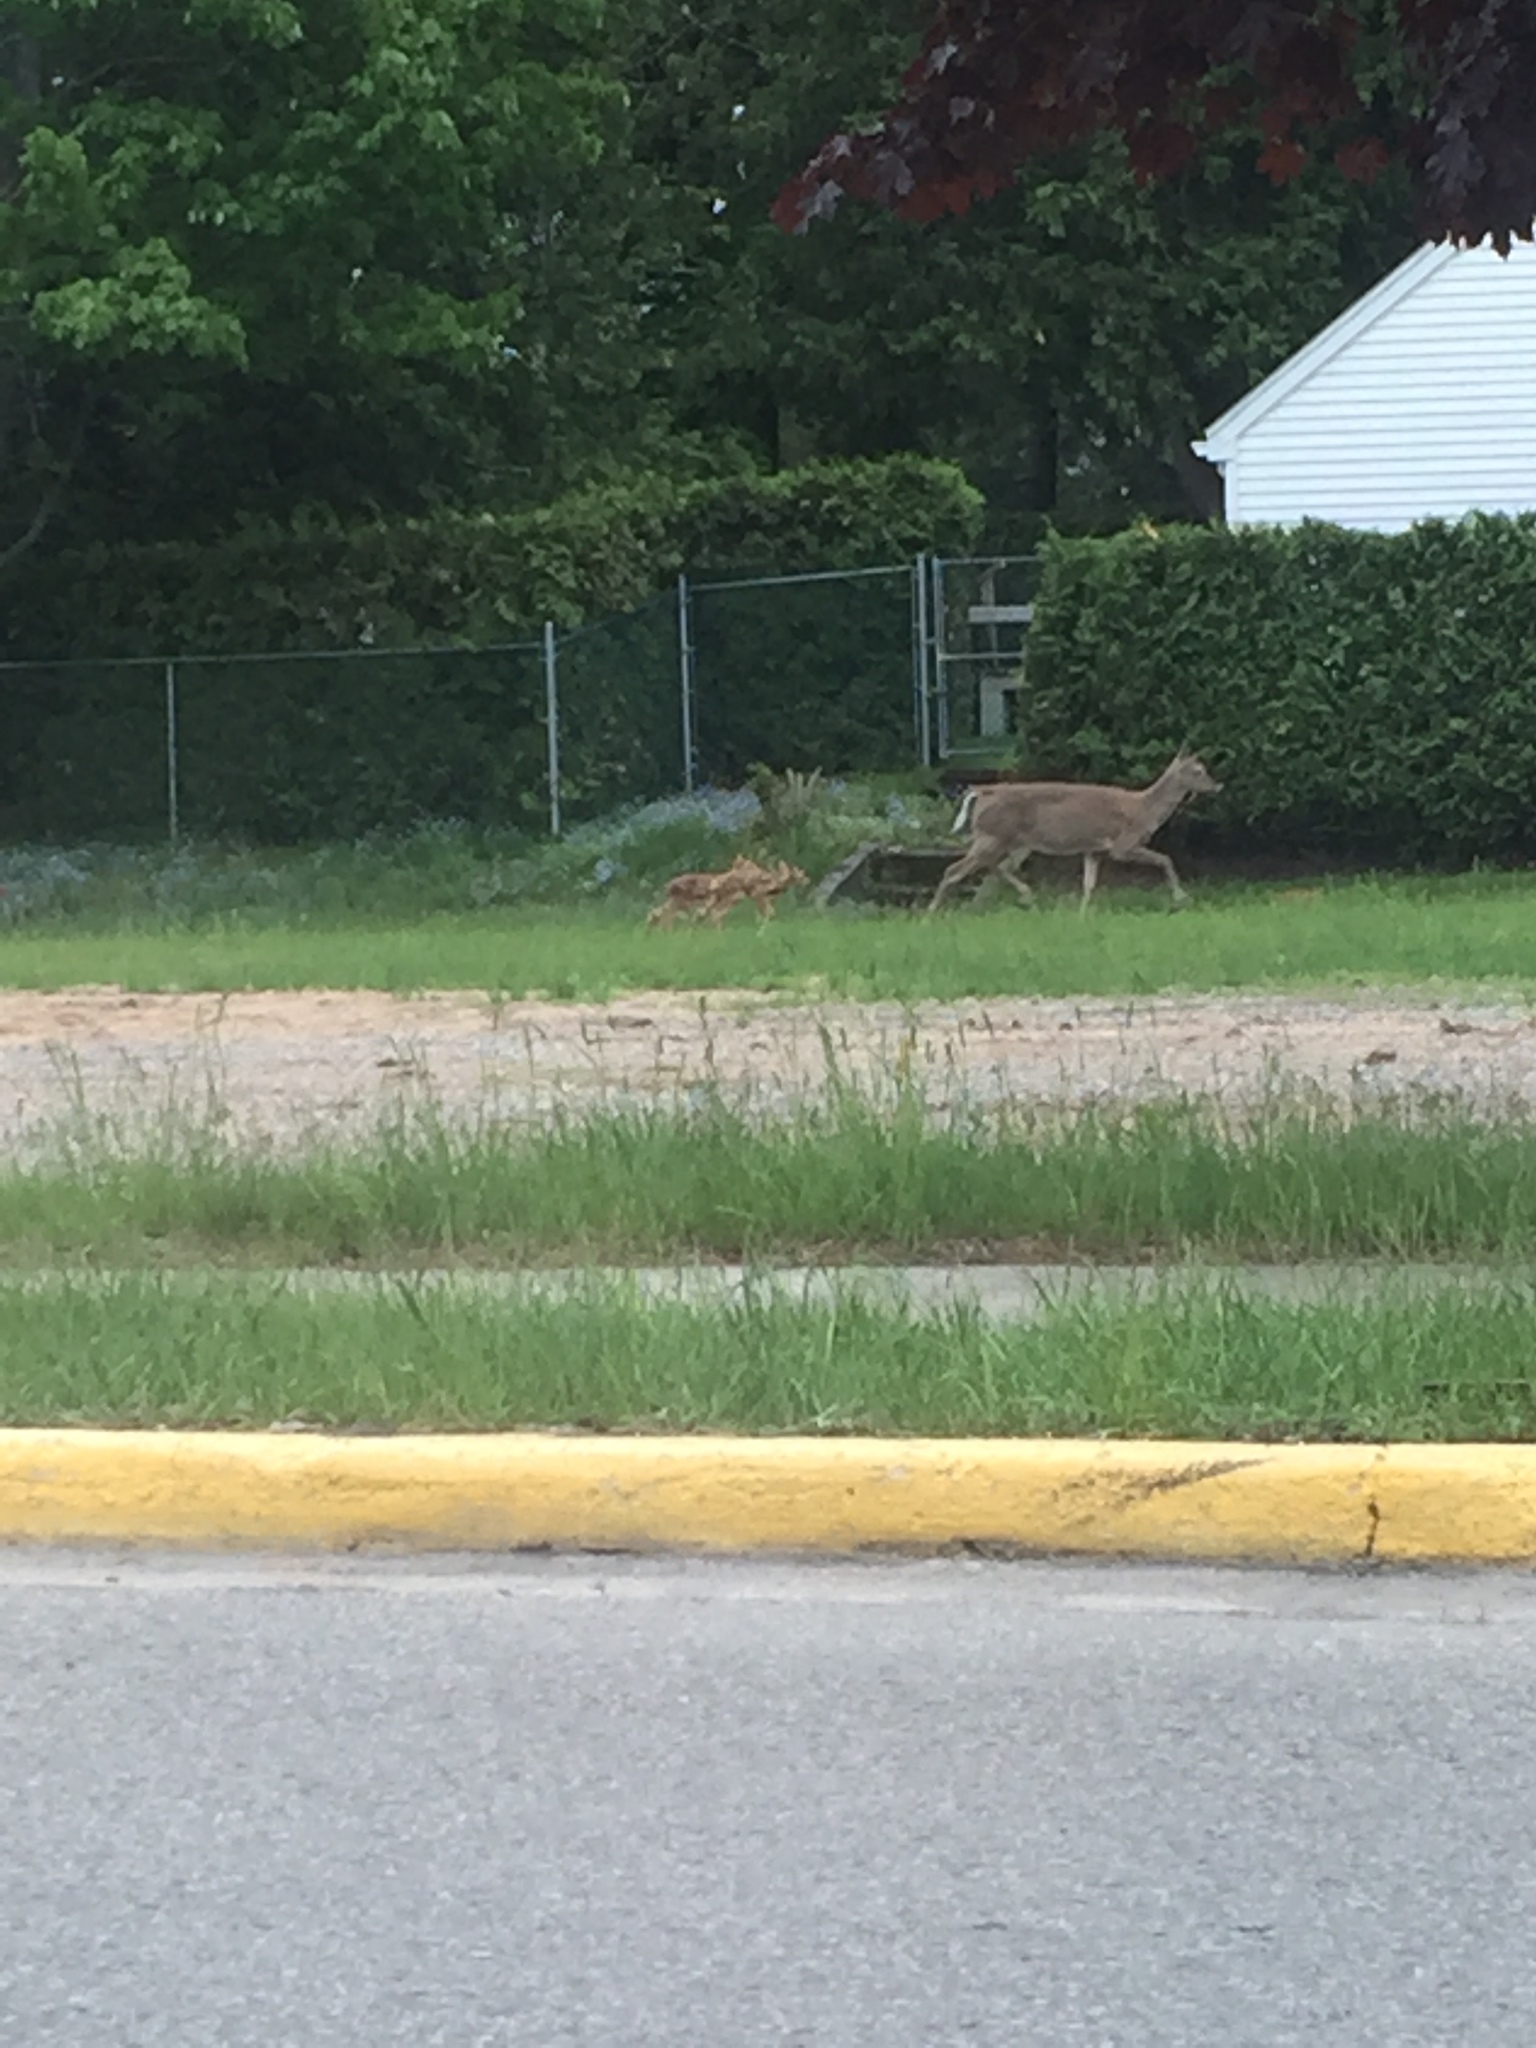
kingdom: Animalia
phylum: Chordata
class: Mammalia
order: Artiodactyla
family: Cervidae
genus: Odocoileus
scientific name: Odocoileus virginianus
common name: White-tailed deer
